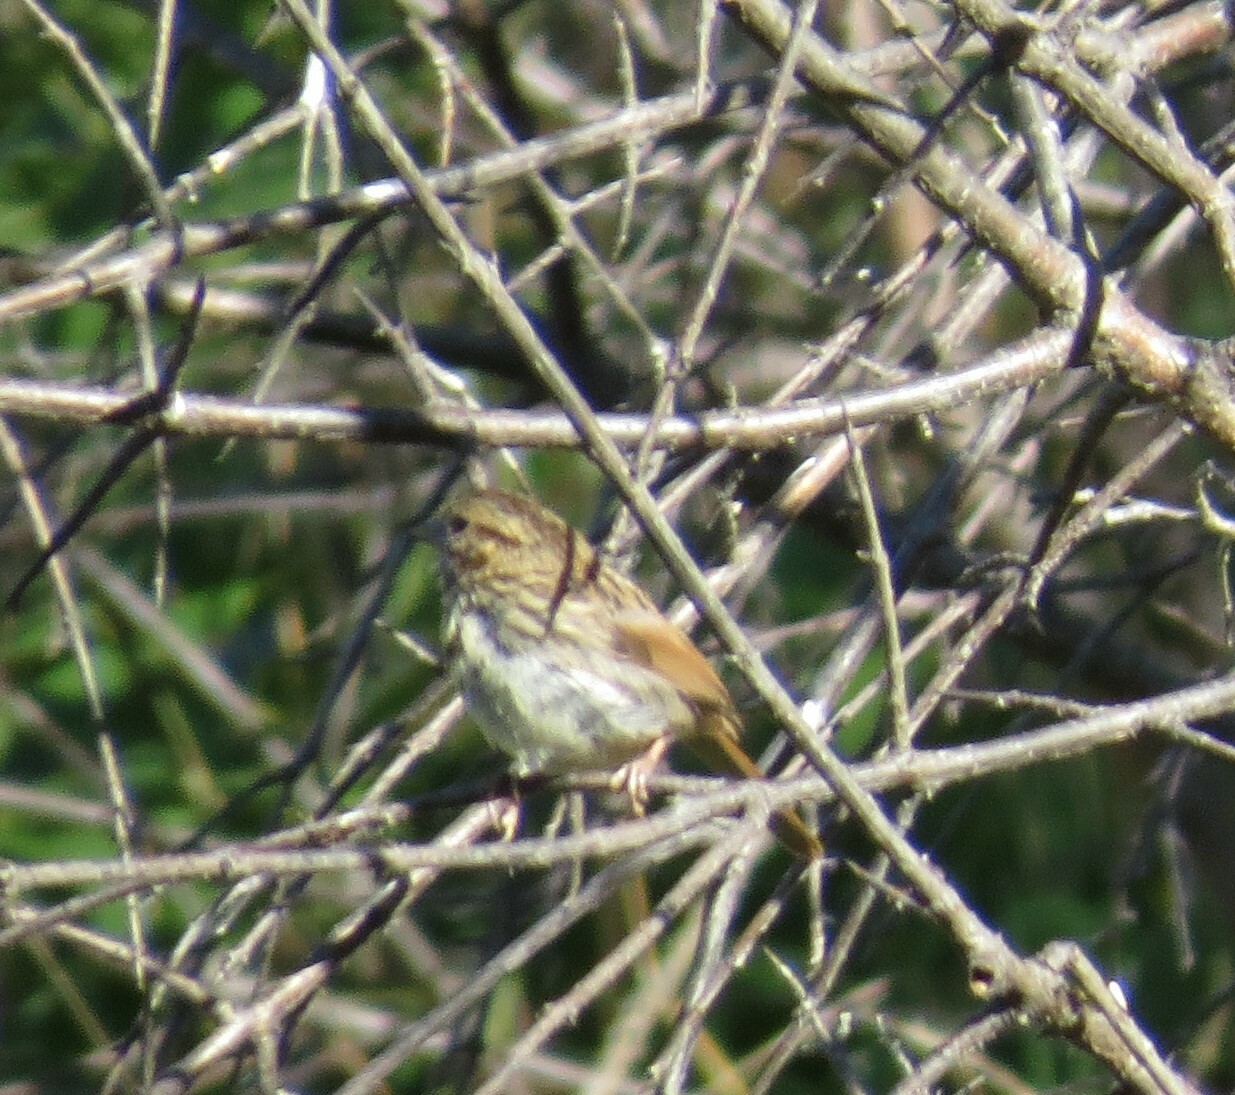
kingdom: Animalia
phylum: Chordata
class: Aves
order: Passeriformes
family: Passerellidae
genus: Melospiza
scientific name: Melospiza melodia
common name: Song sparrow
